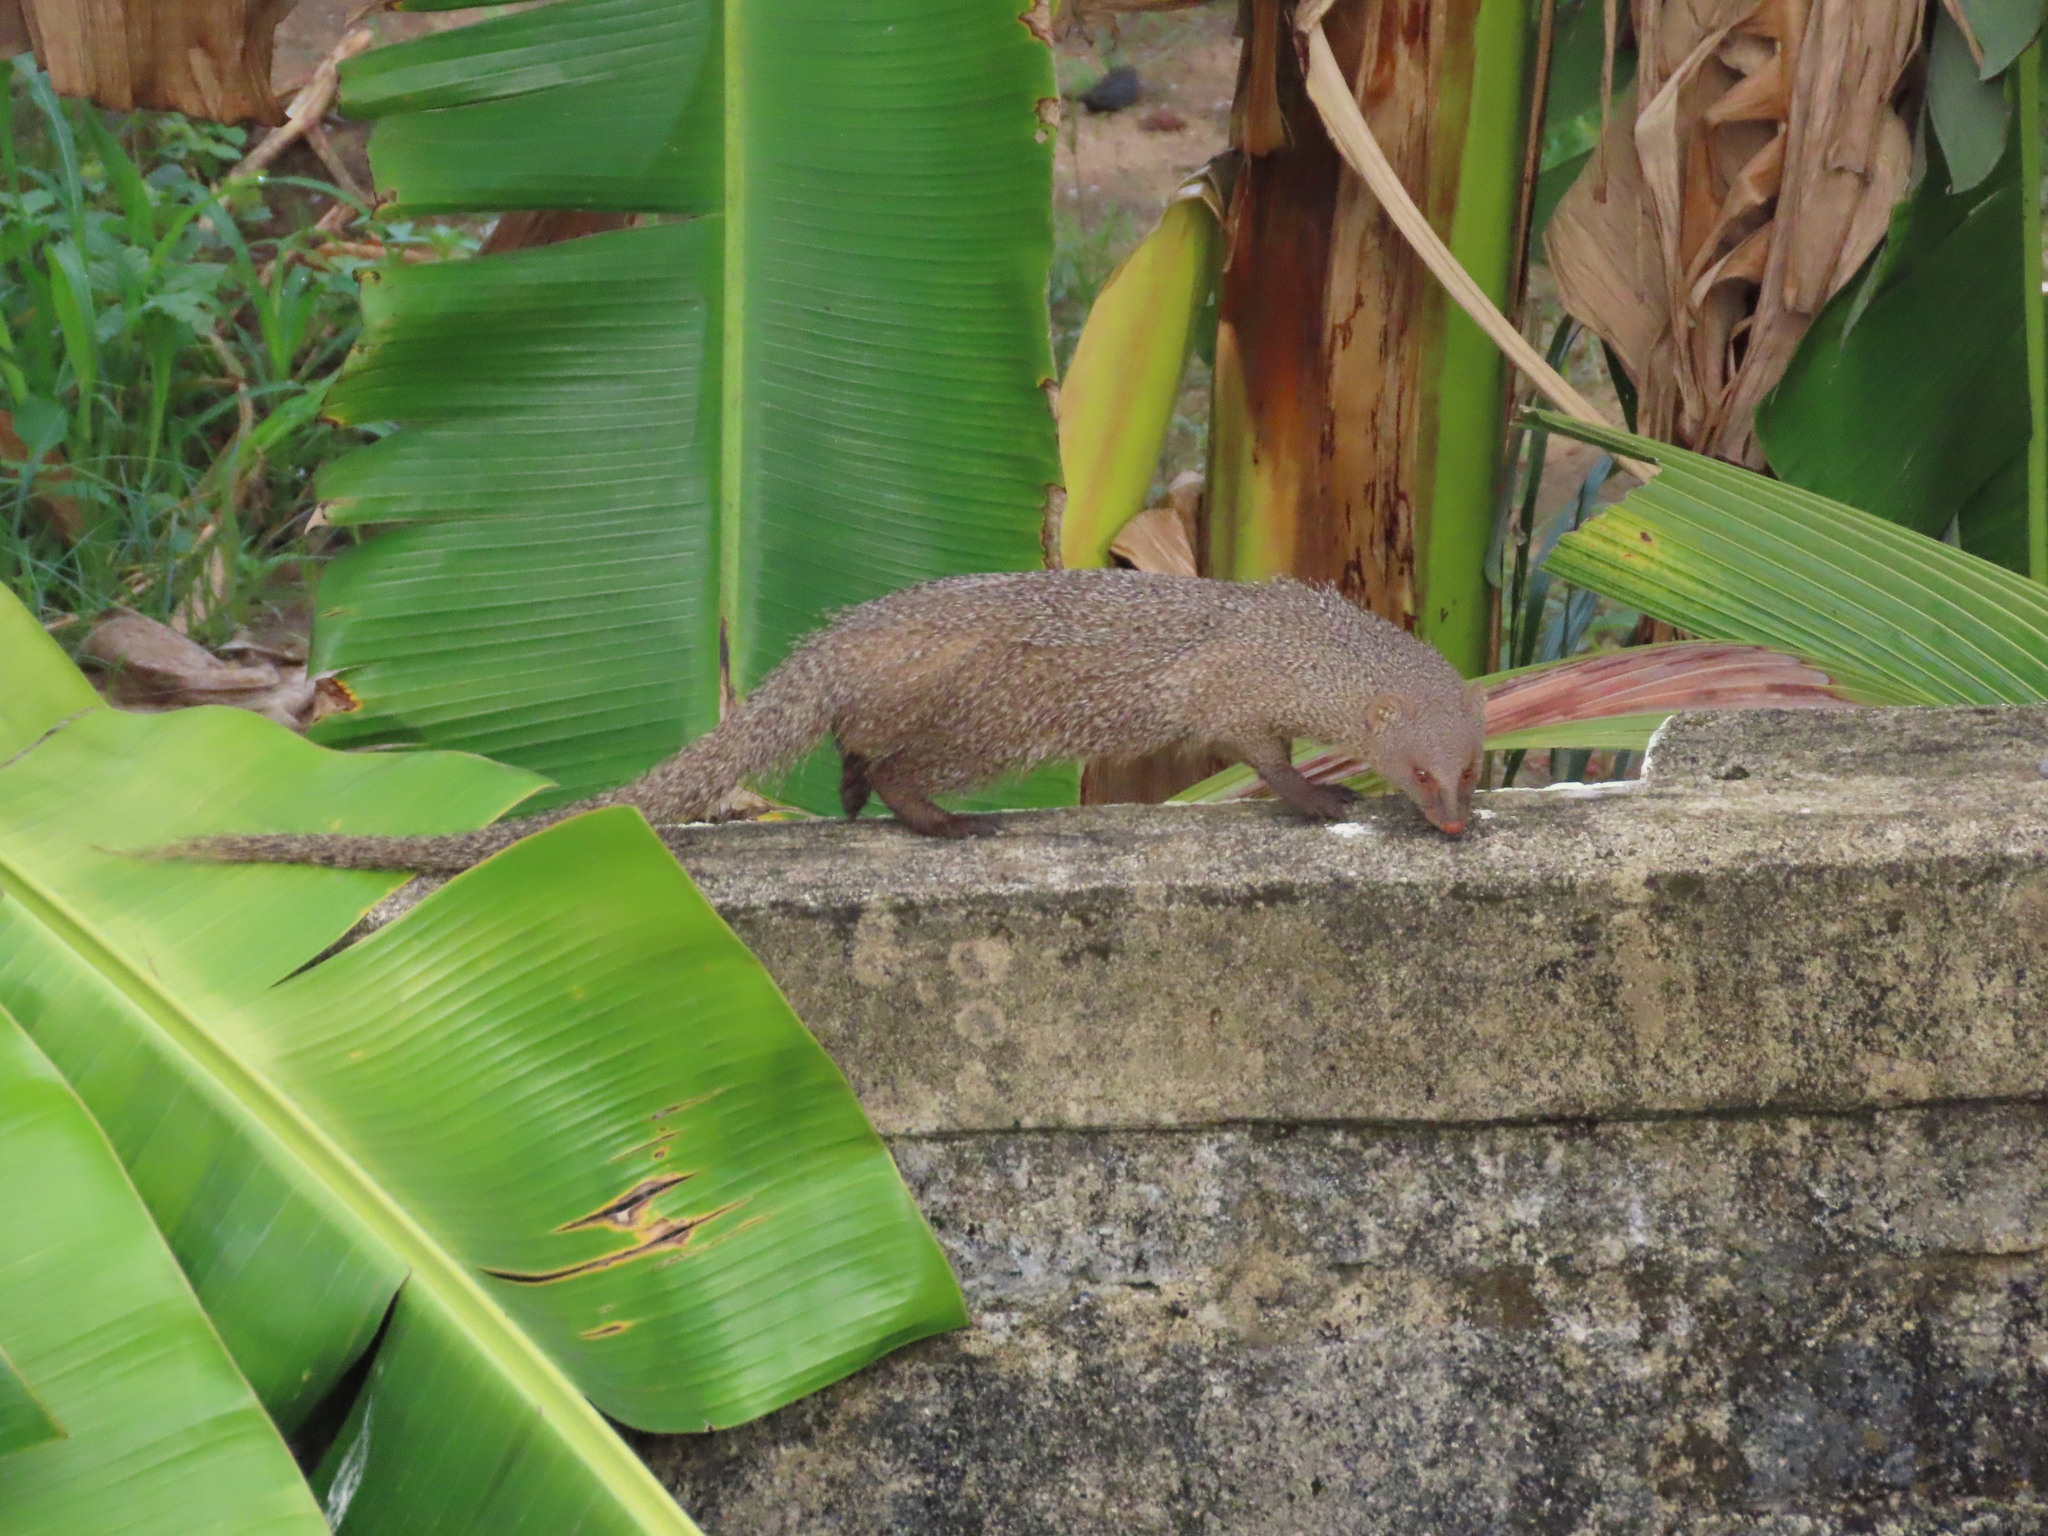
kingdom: Animalia
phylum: Chordata
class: Mammalia
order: Carnivora
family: Herpestidae
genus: Herpestes
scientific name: Herpestes edwardsi
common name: Indian gray mongoose
